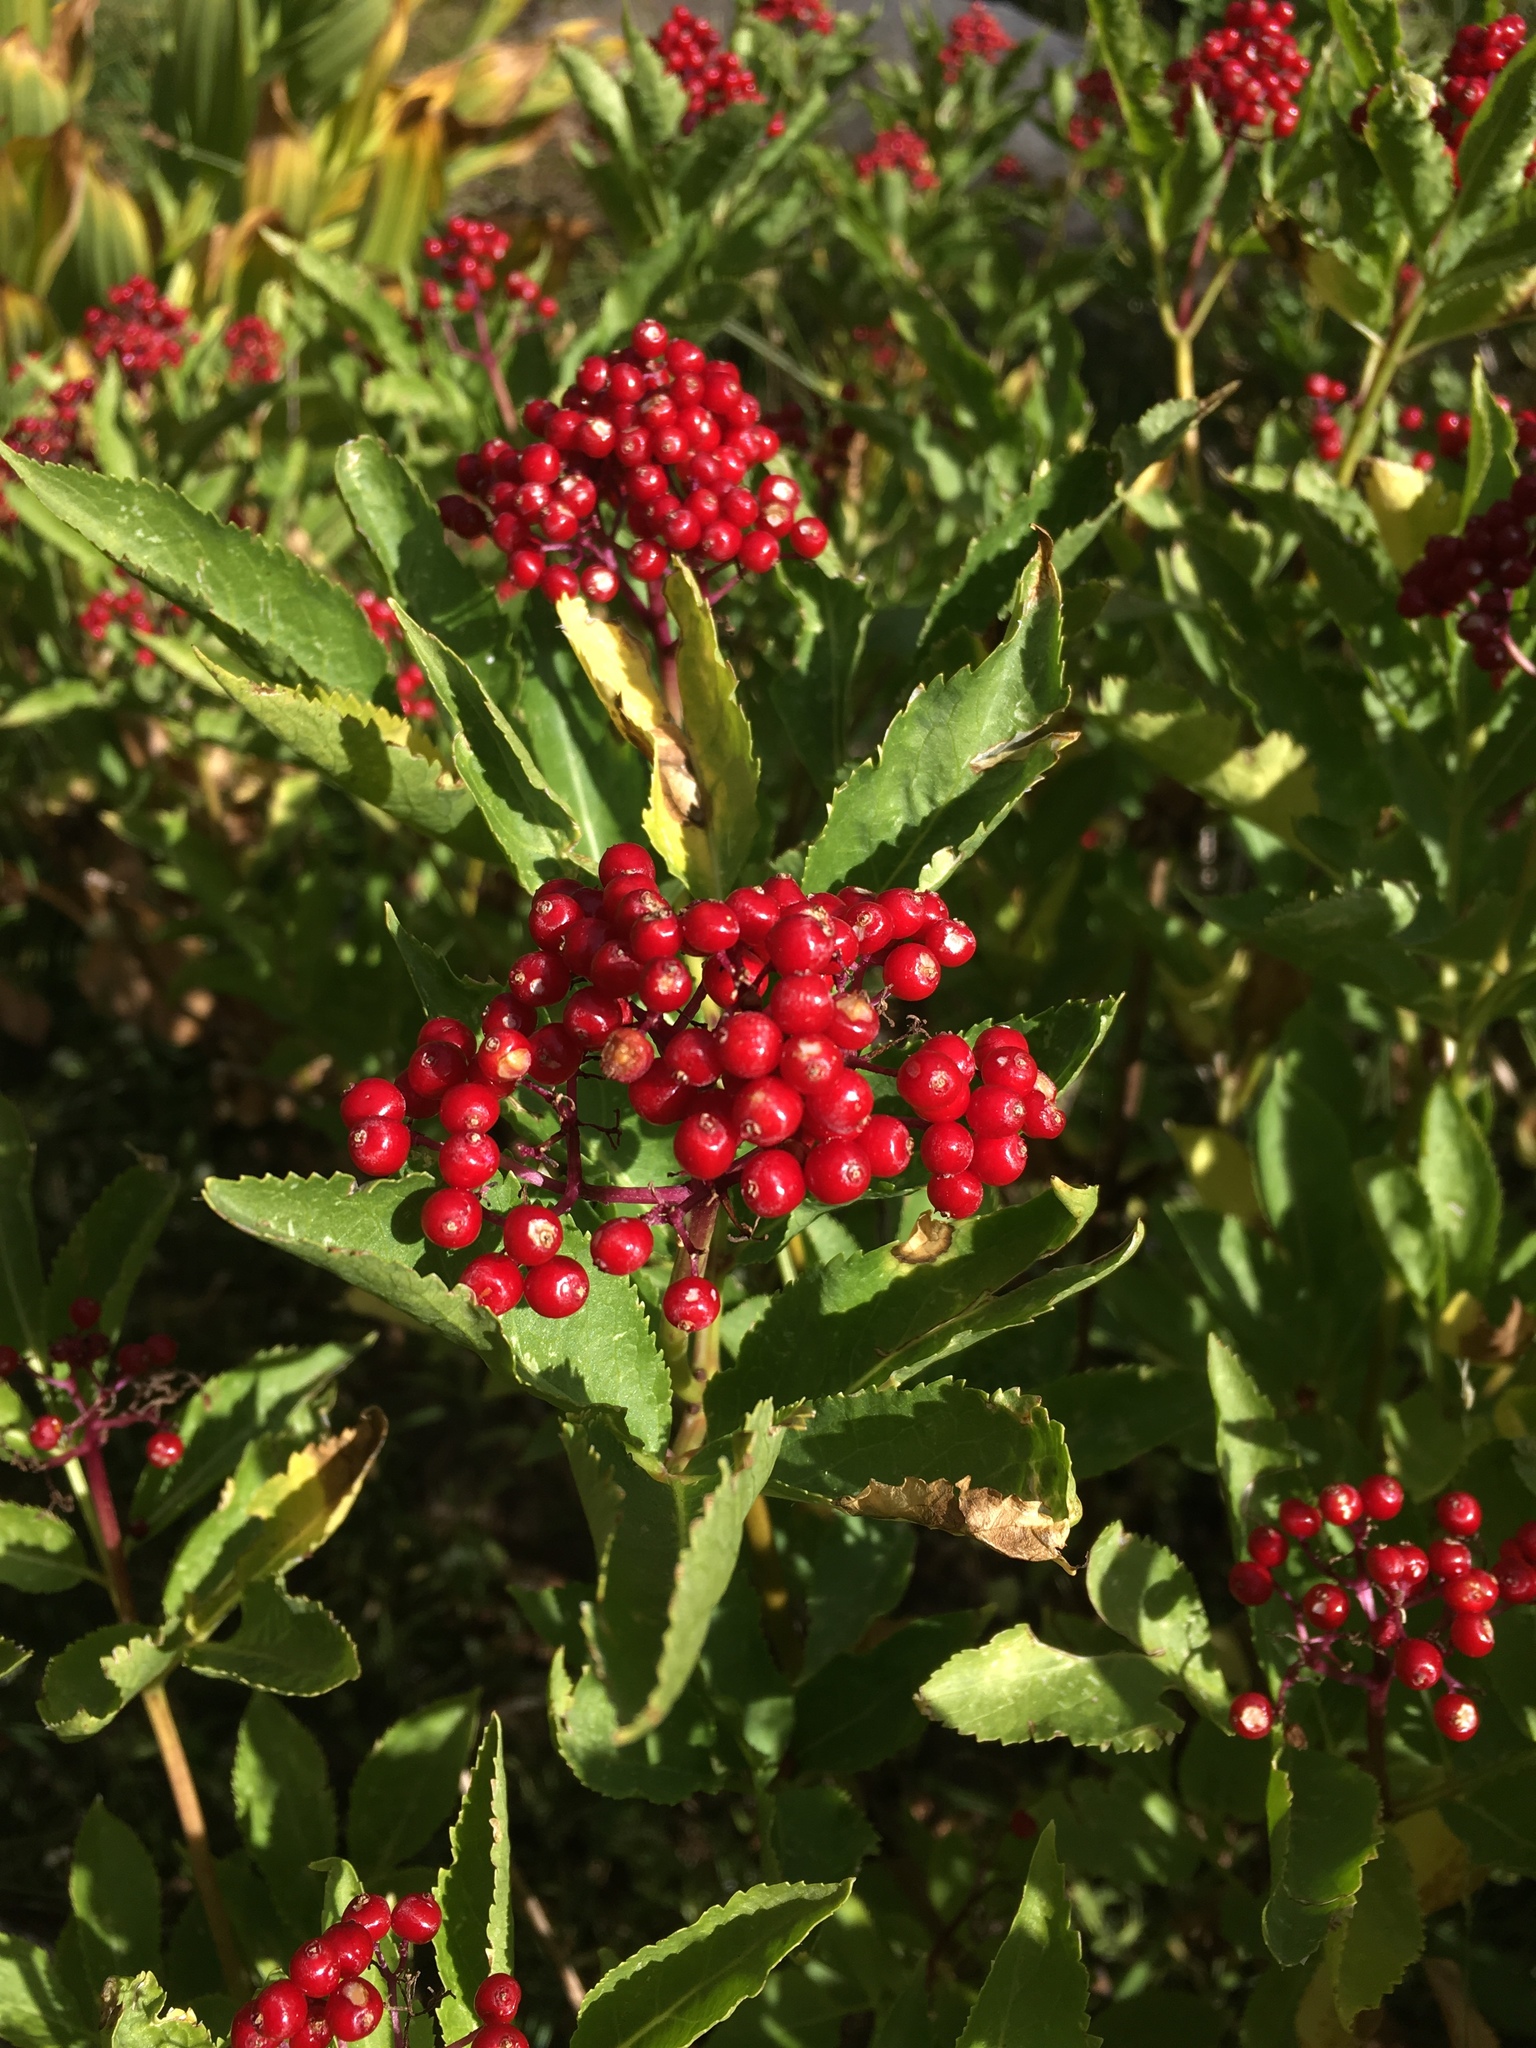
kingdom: Plantae
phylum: Tracheophyta
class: Magnoliopsida
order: Dipsacales
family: Viburnaceae
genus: Sambucus
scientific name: Sambucus racemosa
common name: Red-berried elder
